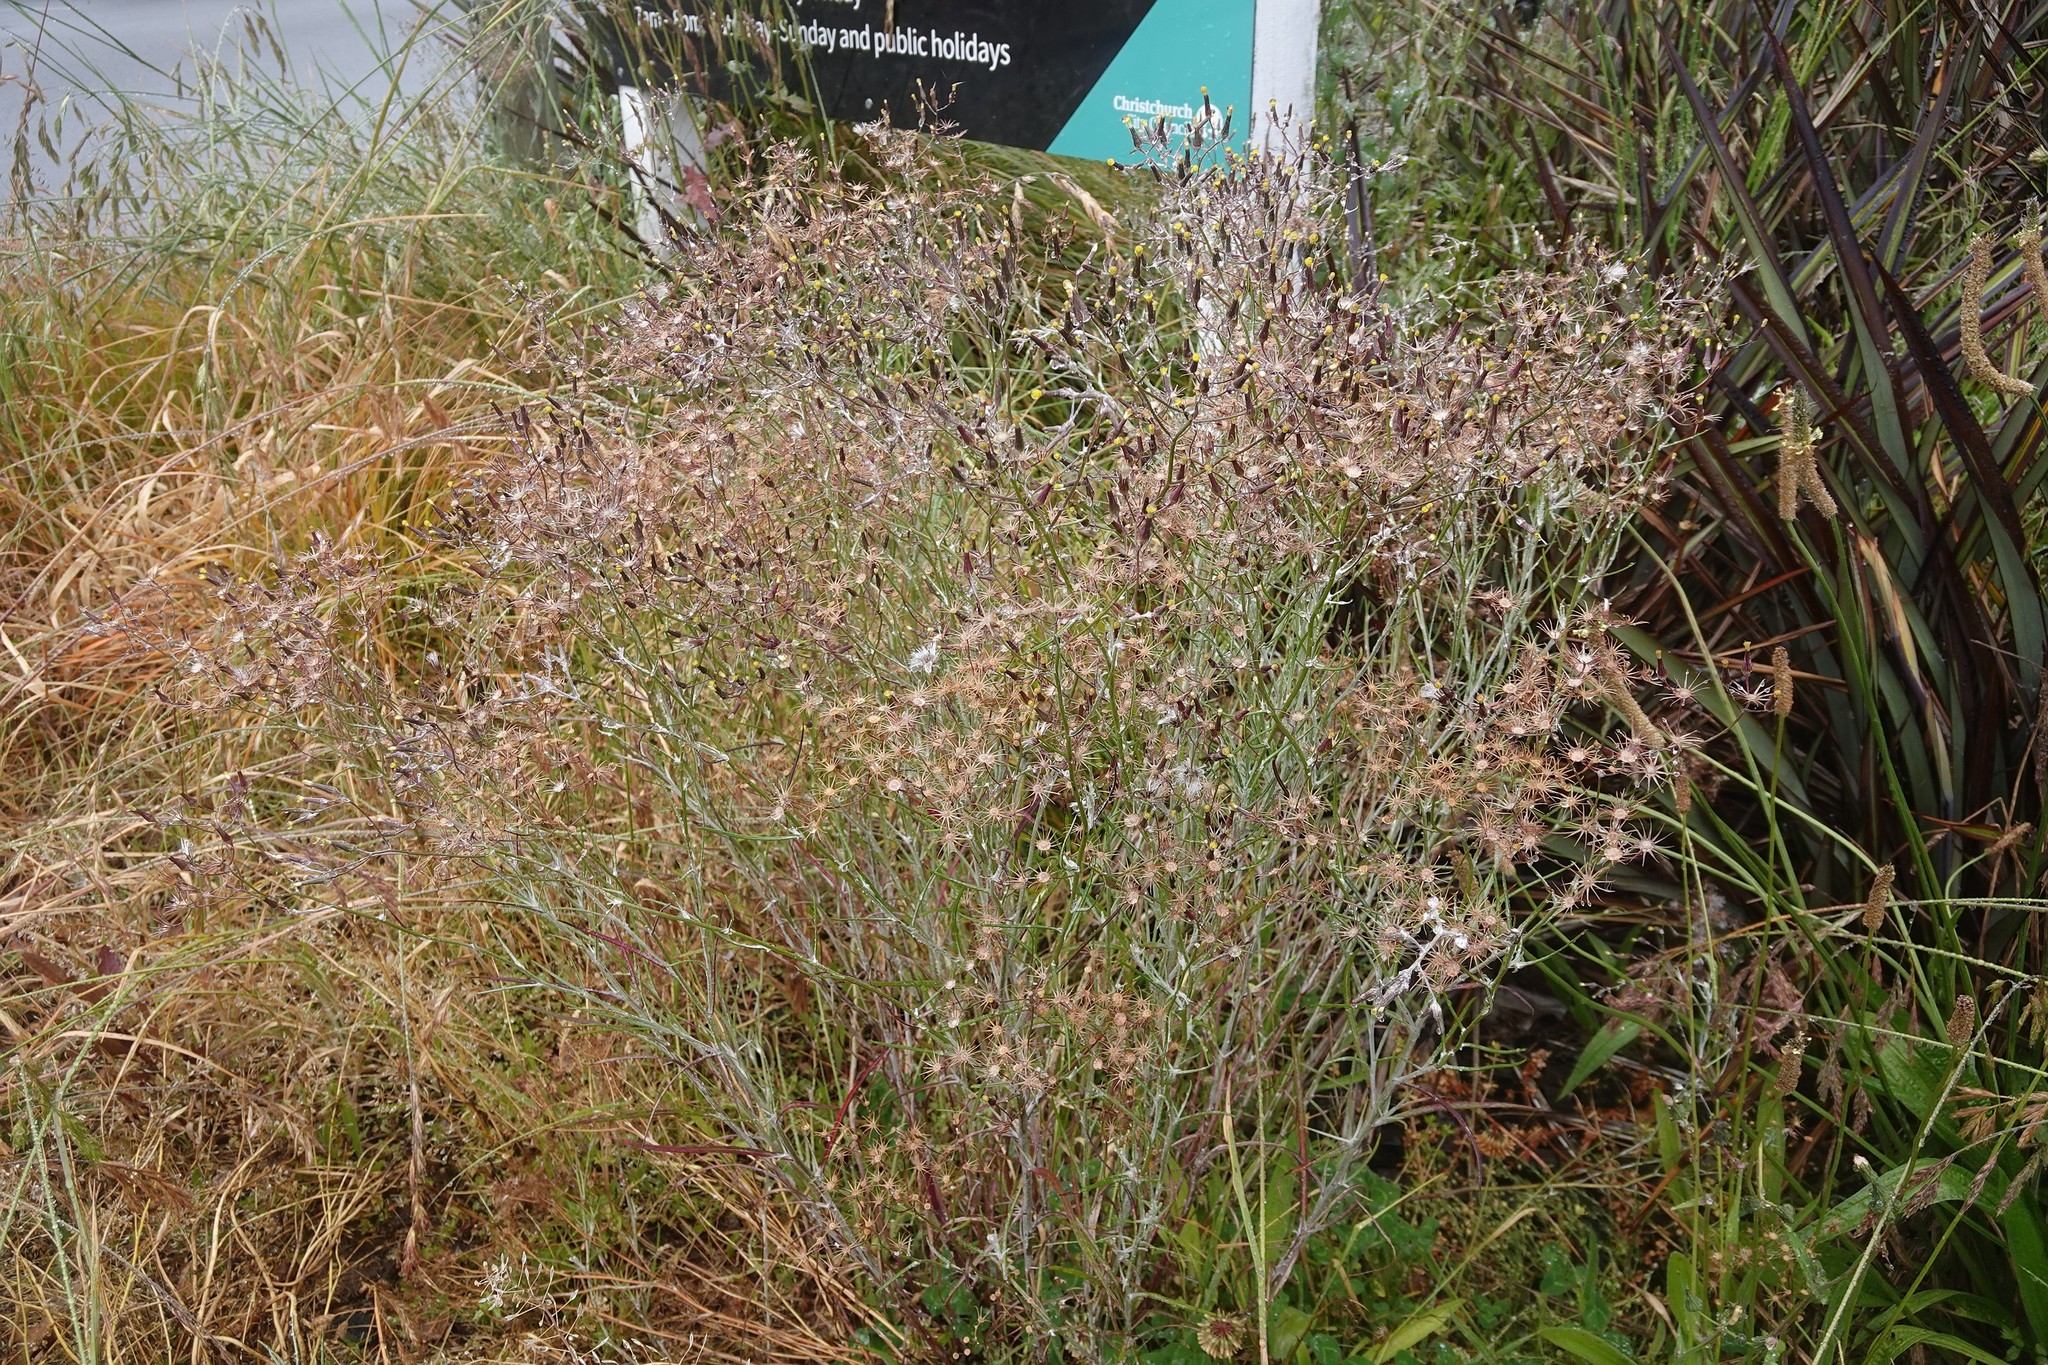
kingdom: Plantae
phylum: Tracheophyta
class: Magnoliopsida
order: Asterales
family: Asteraceae
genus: Senecio
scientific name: Senecio quadridentatus
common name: Cotton fireweed
